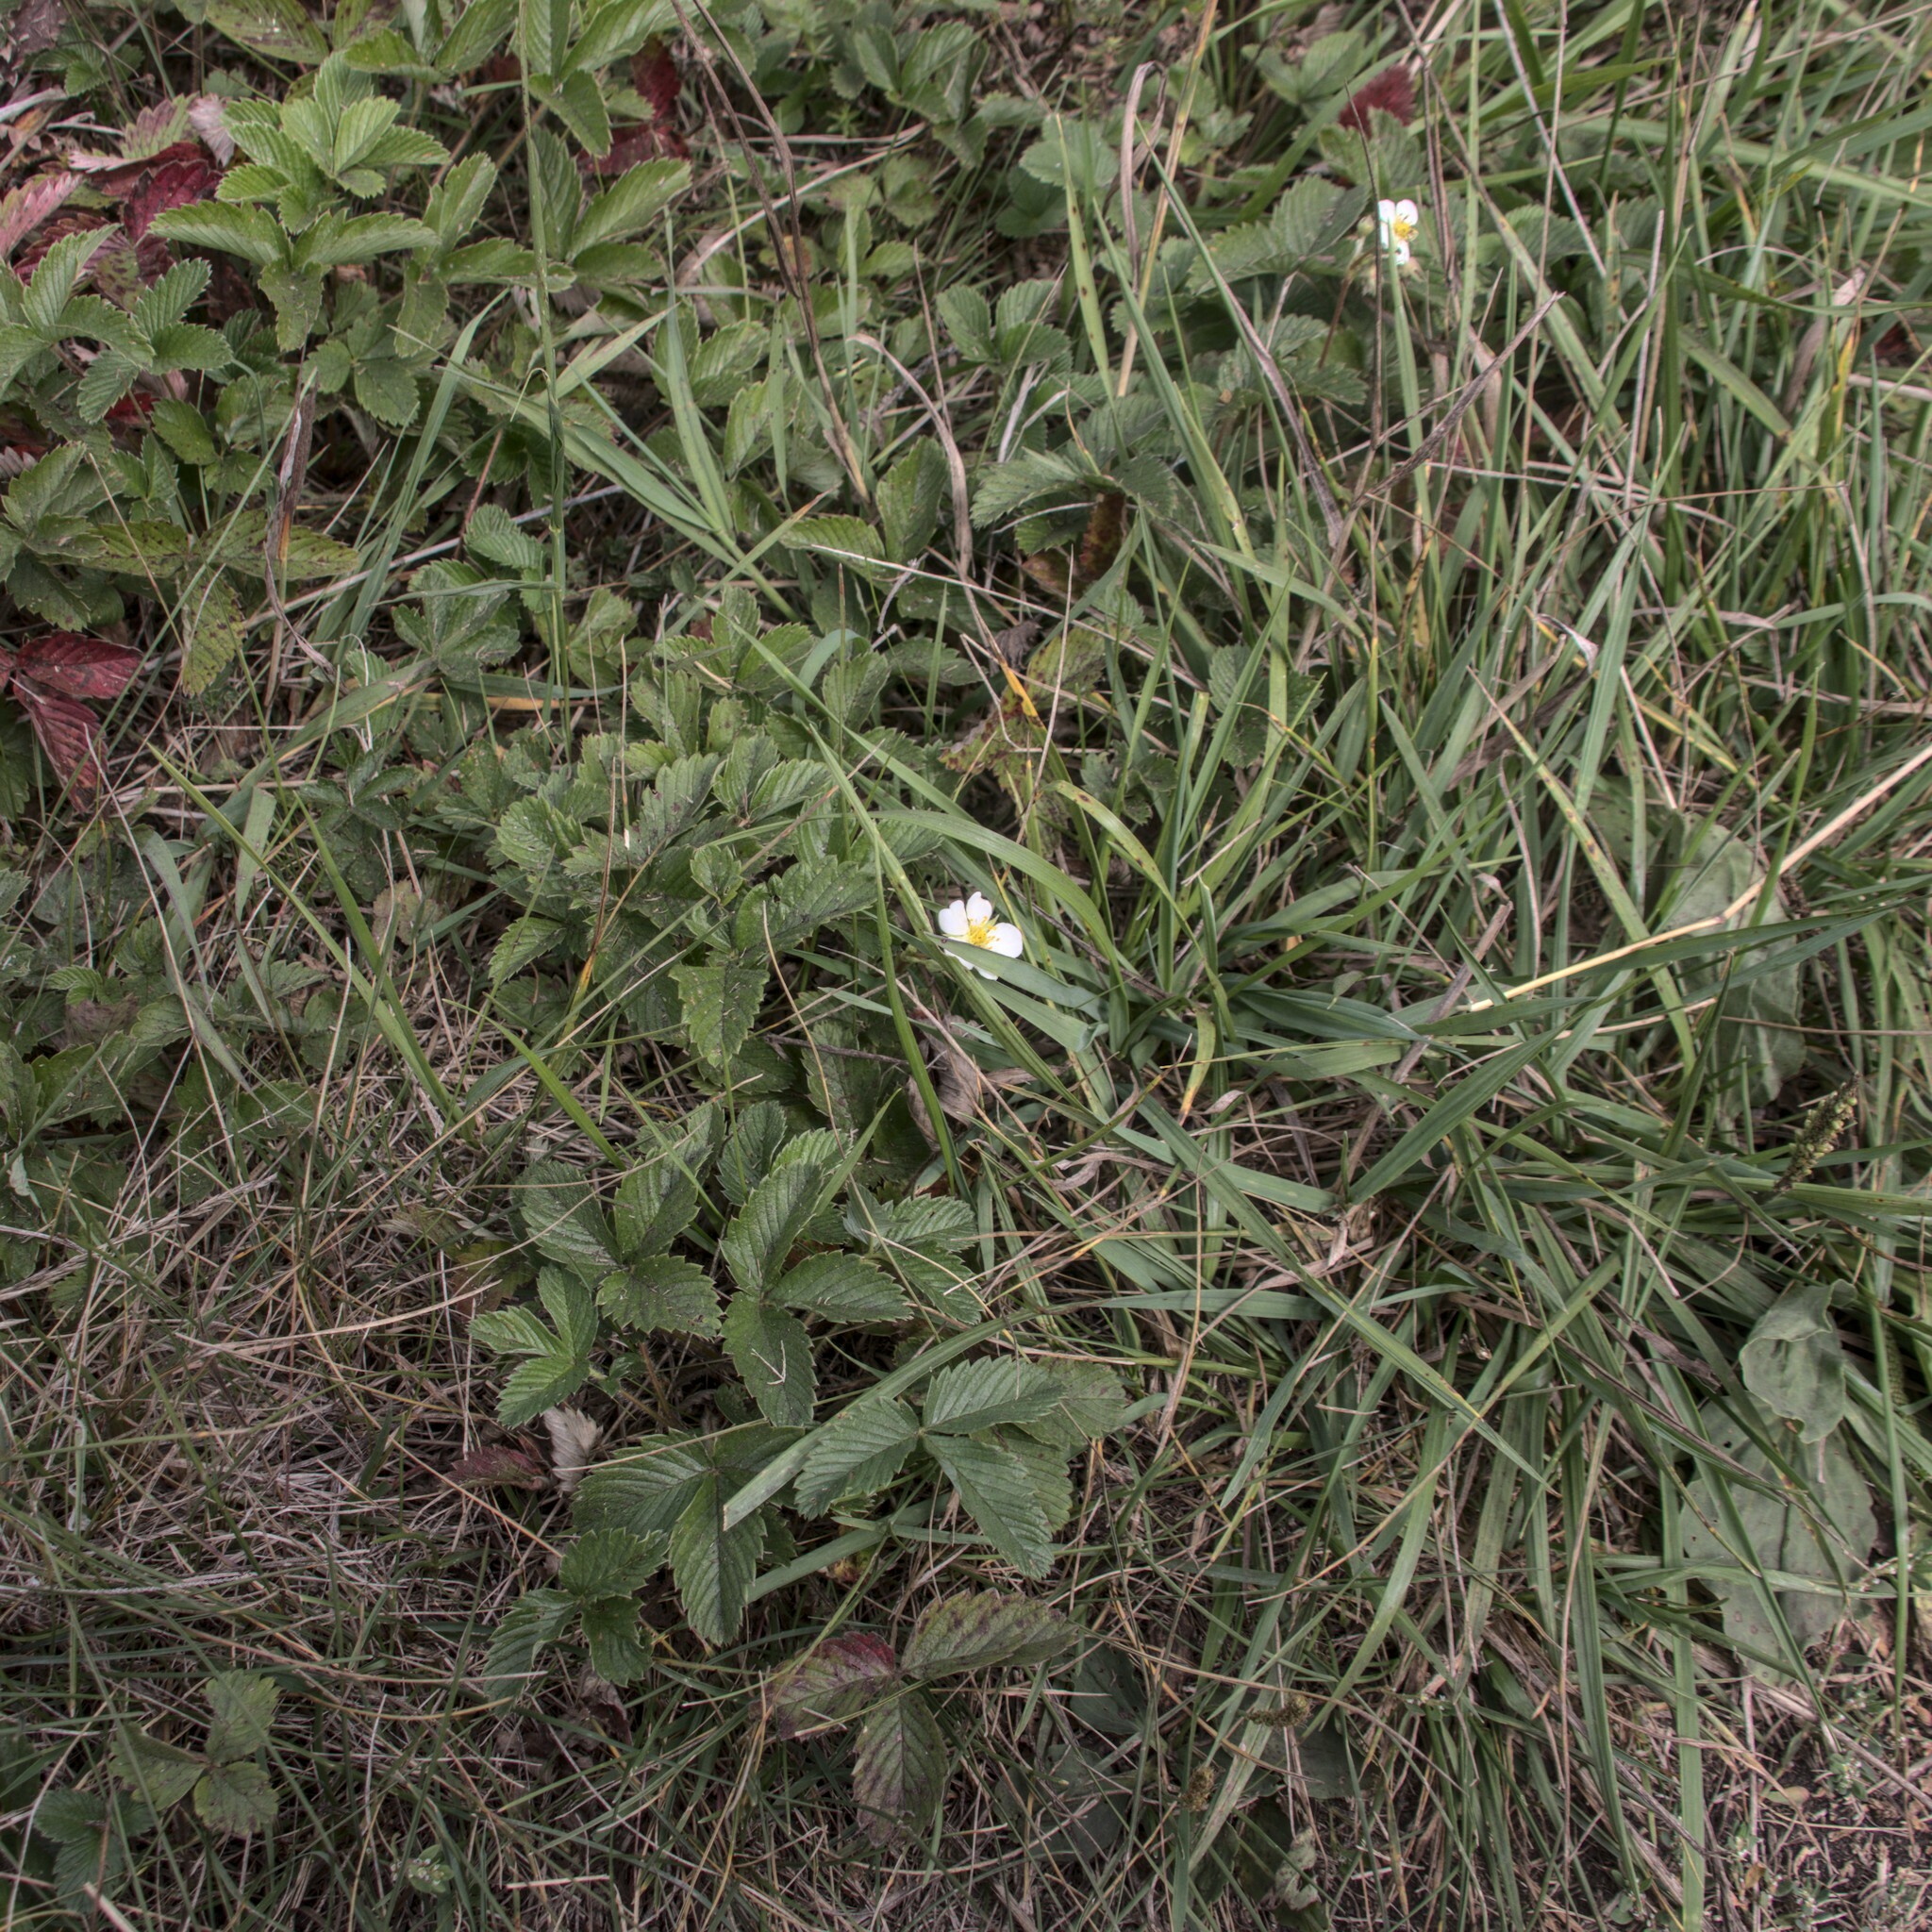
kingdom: Plantae
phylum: Tracheophyta
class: Magnoliopsida
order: Rosales
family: Rosaceae
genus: Fragaria
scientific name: Fragaria viridis
